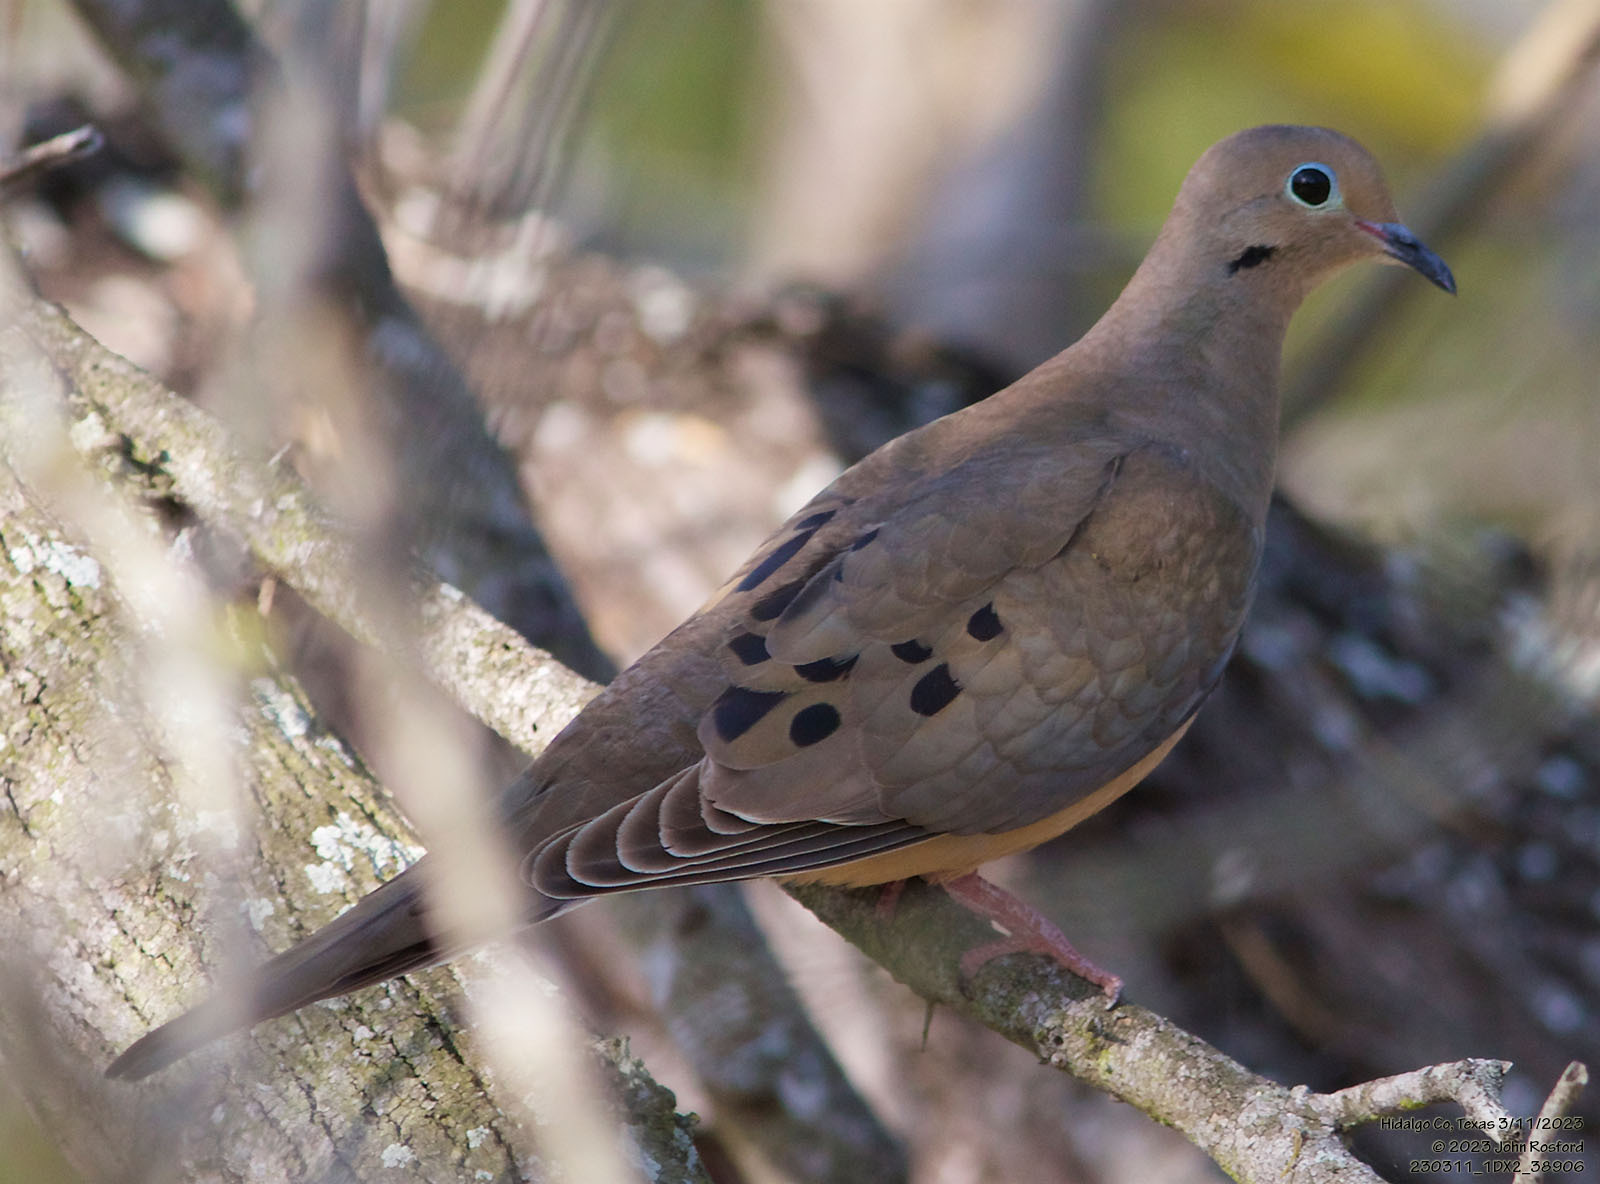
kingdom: Animalia
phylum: Chordata
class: Aves
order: Columbiformes
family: Columbidae
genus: Zenaida
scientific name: Zenaida macroura
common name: Mourning dove
